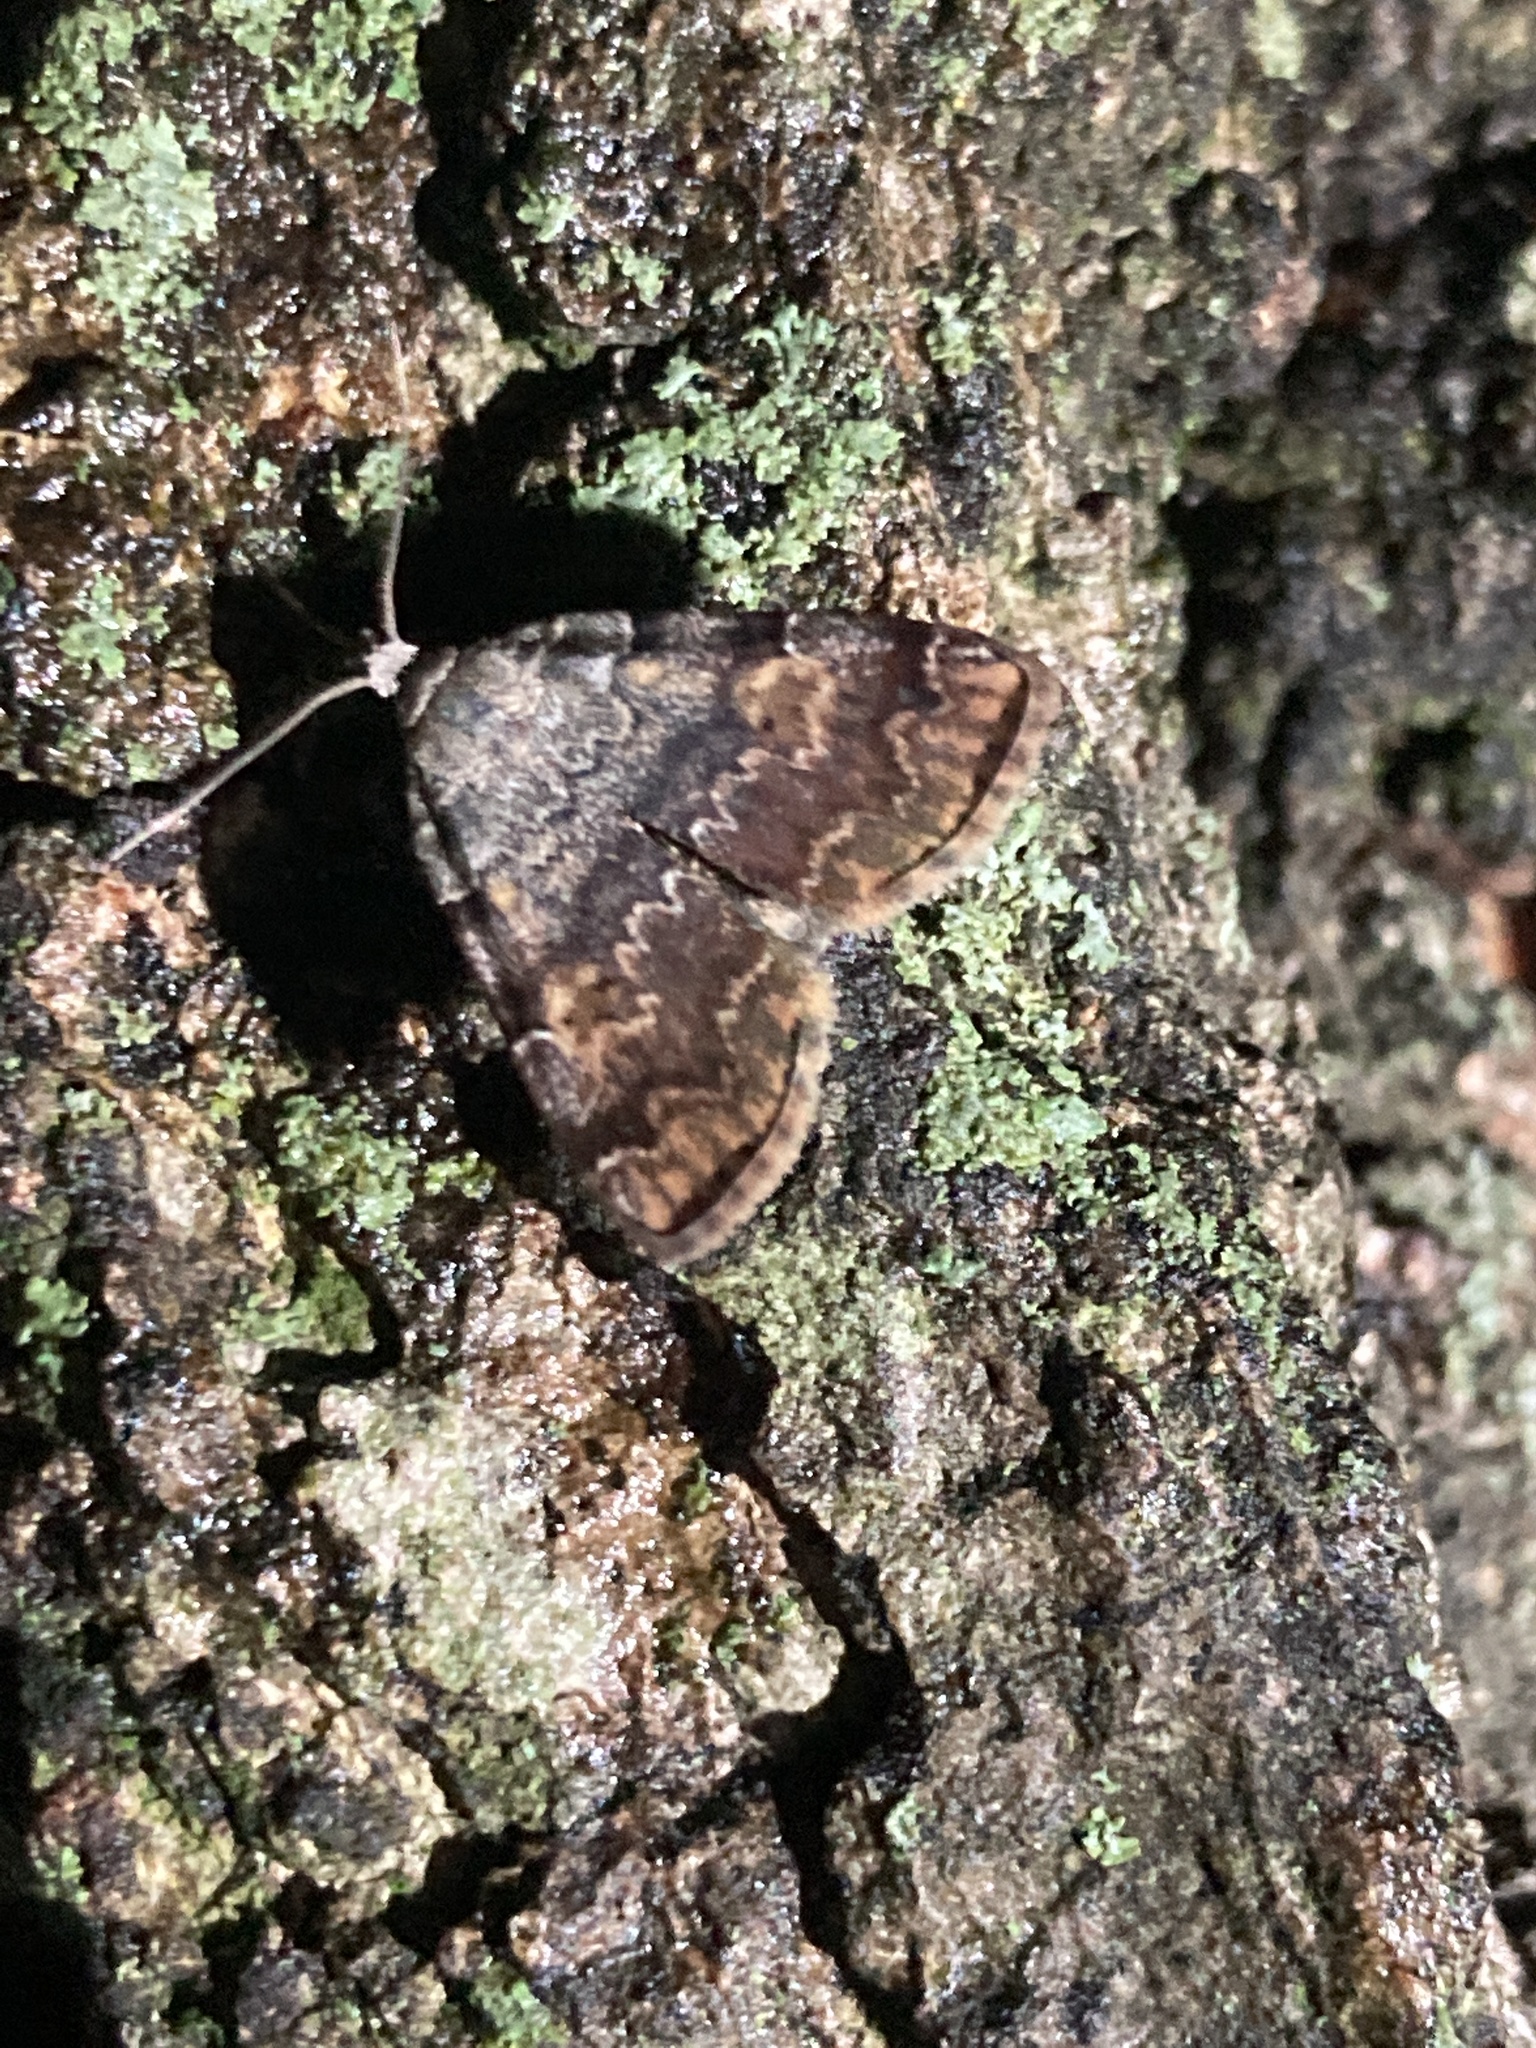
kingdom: Animalia
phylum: Arthropoda
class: Insecta
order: Lepidoptera
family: Erebidae
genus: Idia
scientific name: Idia americalis
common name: American idia moth
